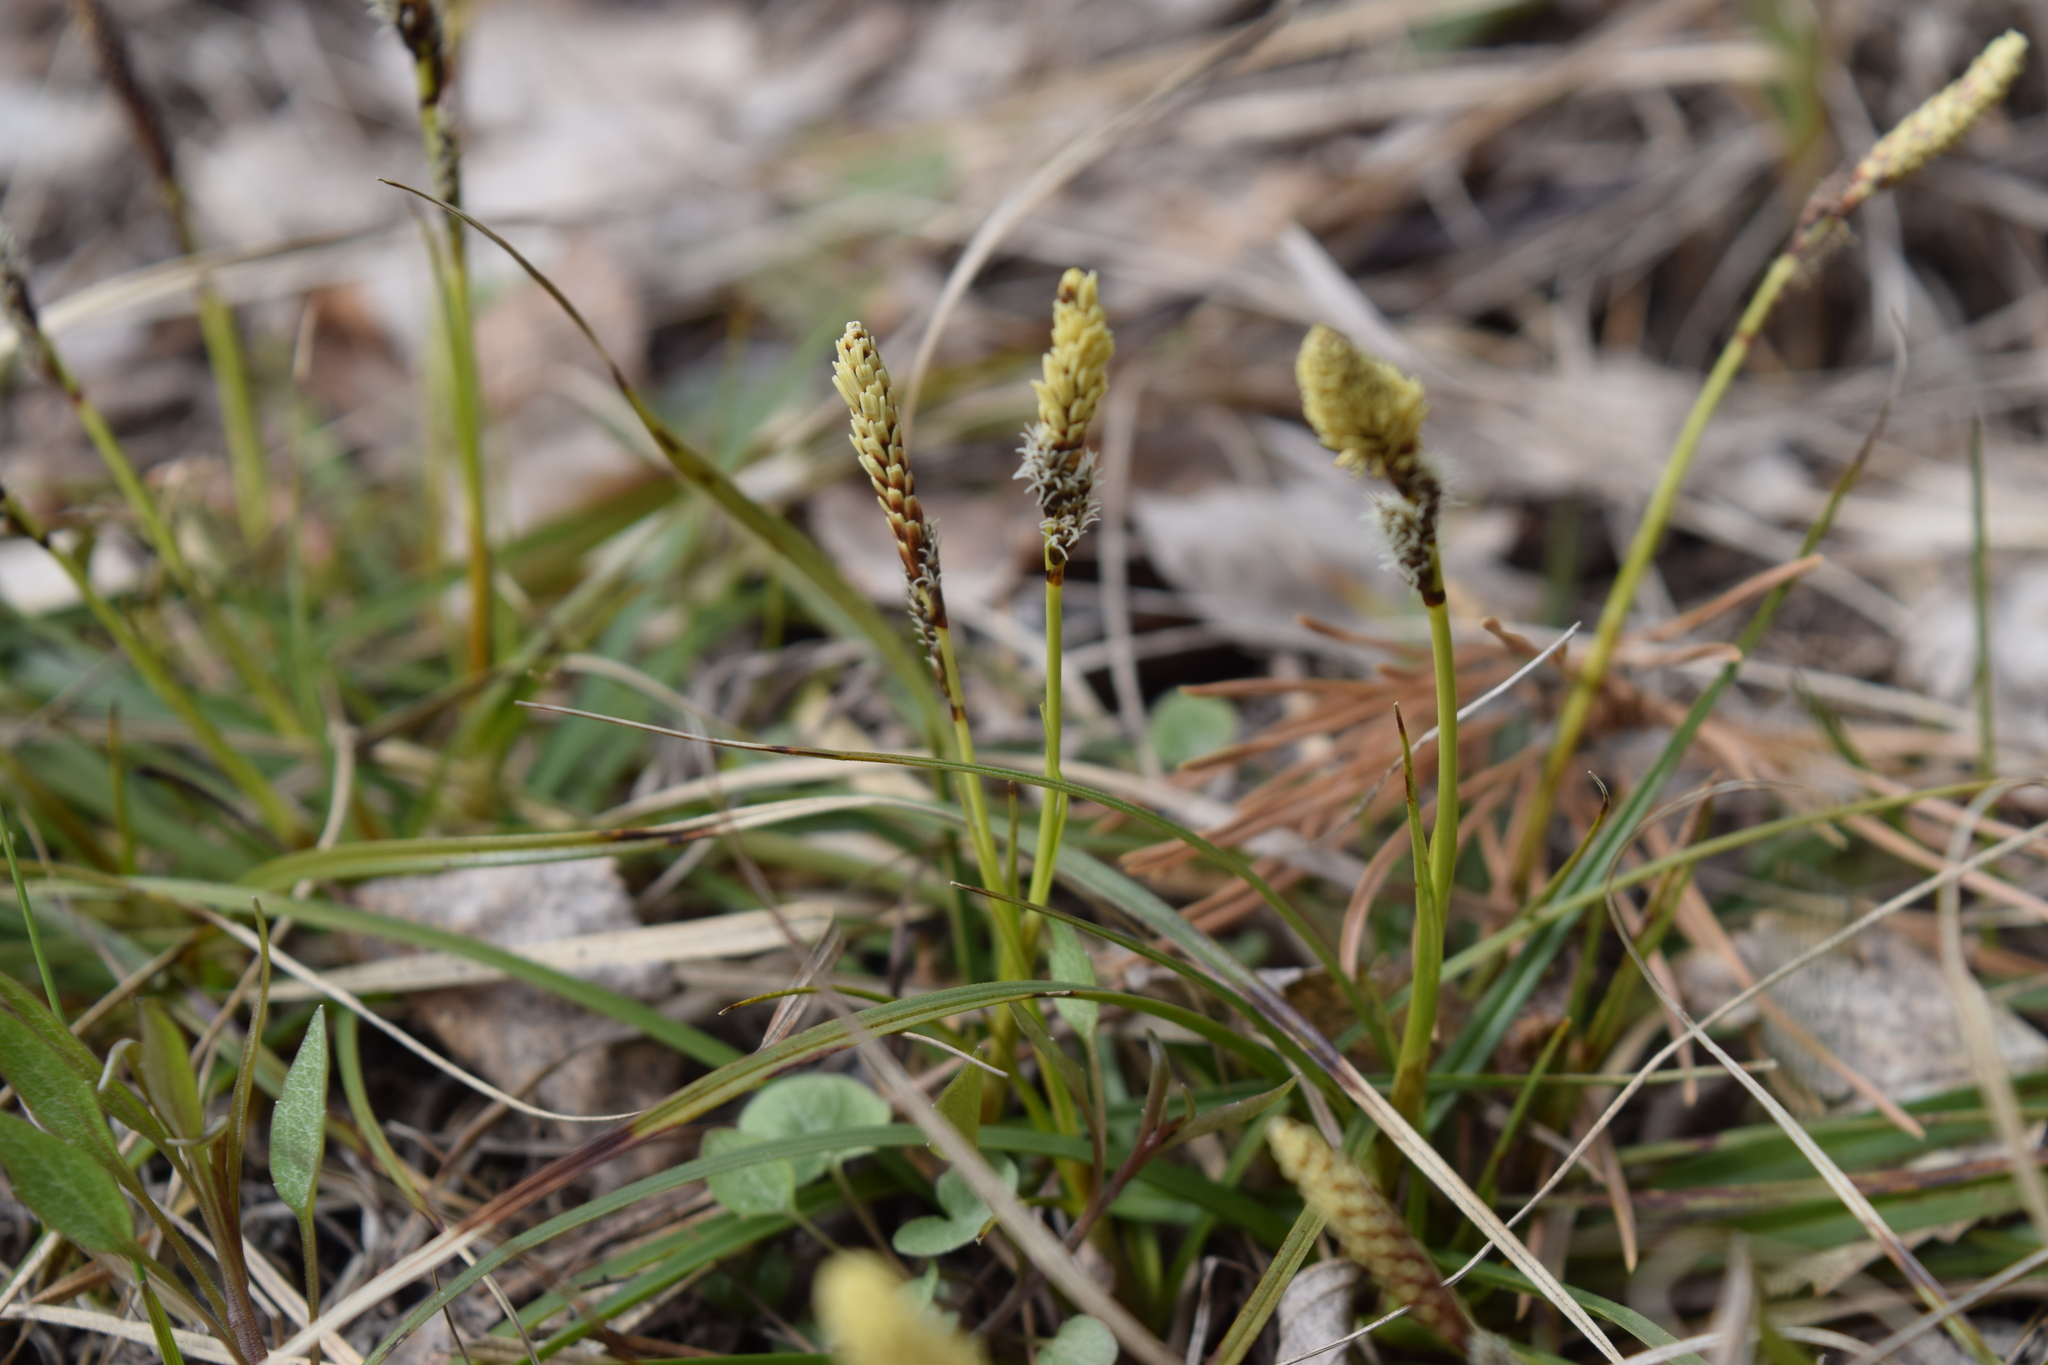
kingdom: Plantae
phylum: Tracheophyta
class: Liliopsida
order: Poales
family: Cyperaceae
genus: Carex
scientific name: Carex ericetorum
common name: Rare spring-sedge
